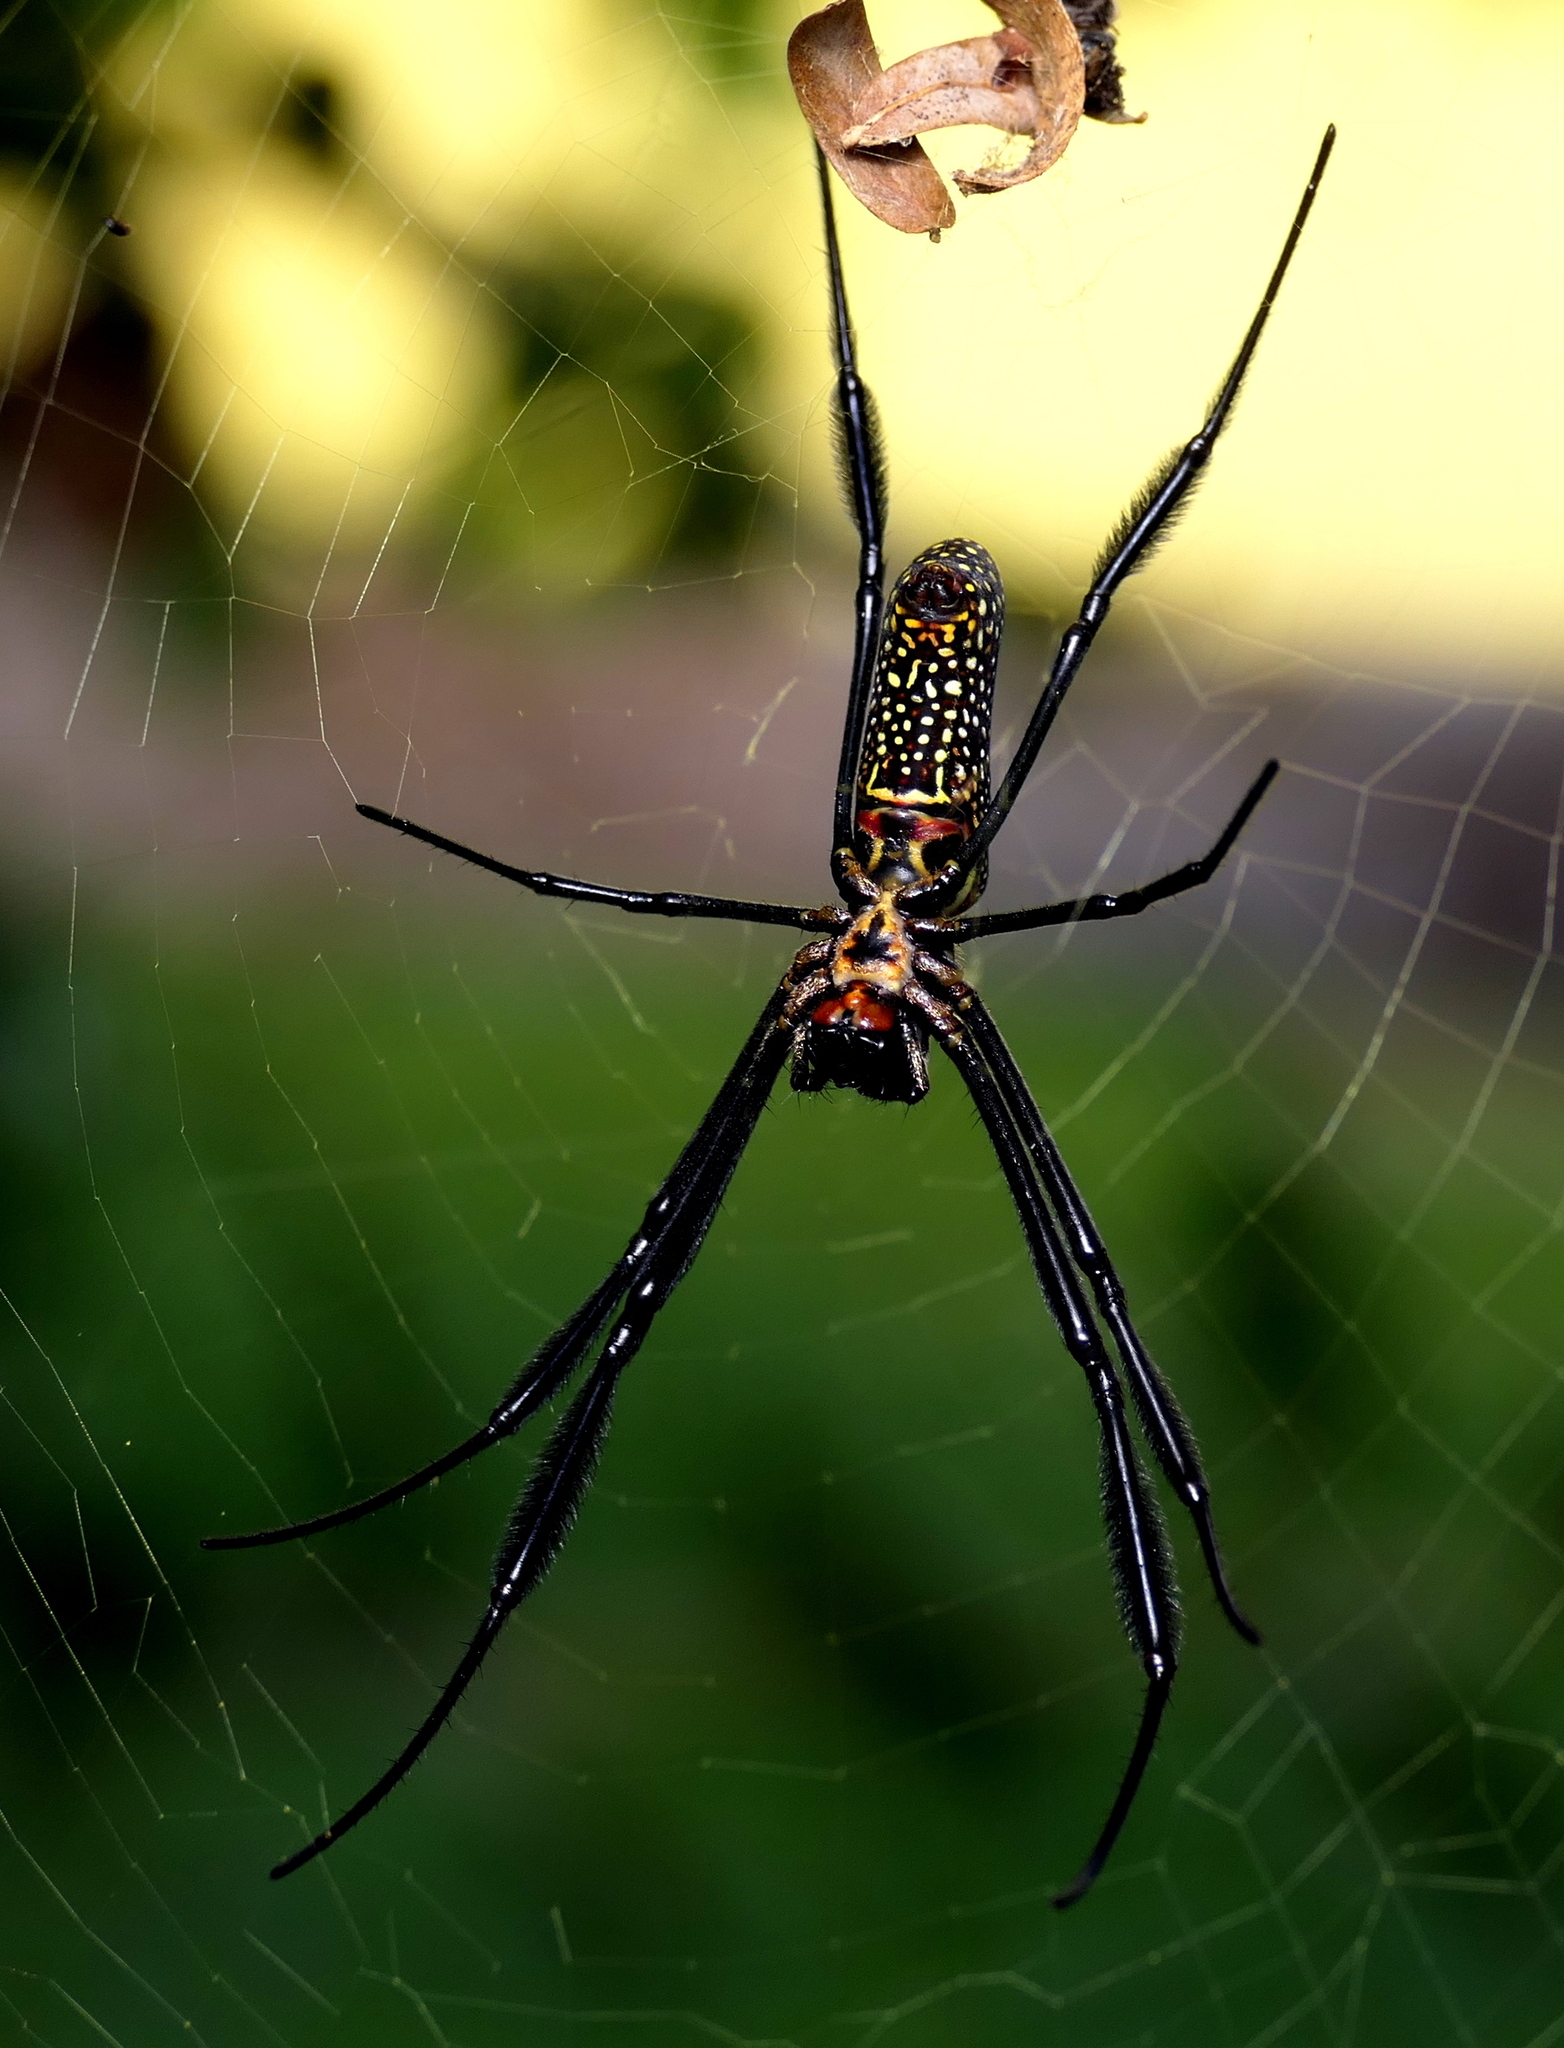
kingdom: Animalia
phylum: Arthropoda
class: Arachnida
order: Araneae
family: Araneidae
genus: Trichonephila
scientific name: Trichonephila clavipes
